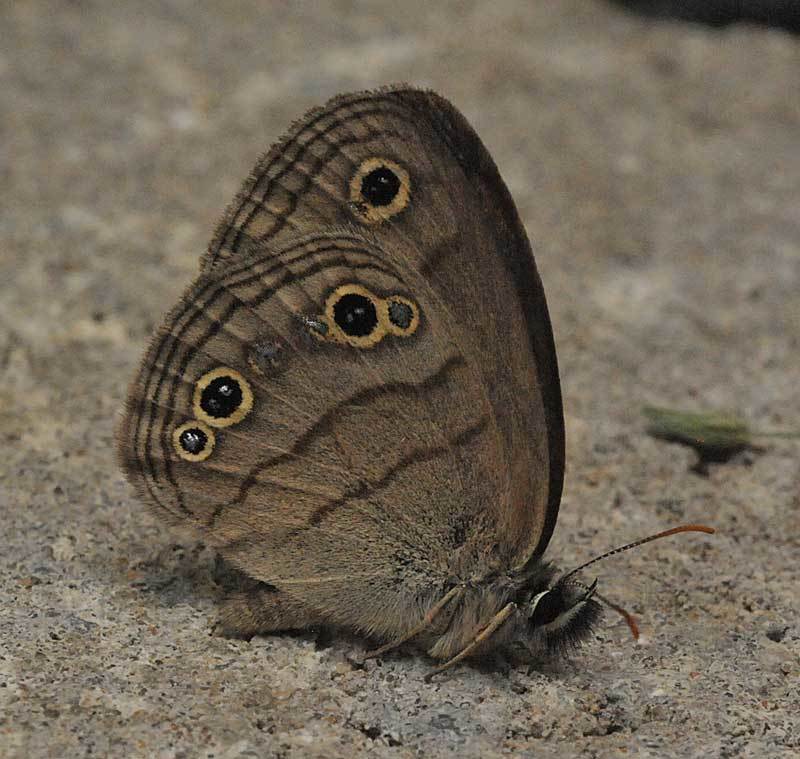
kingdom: Animalia
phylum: Arthropoda
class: Insecta
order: Lepidoptera
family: Nymphalidae
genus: Euptychia
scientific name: Euptychia cymela
